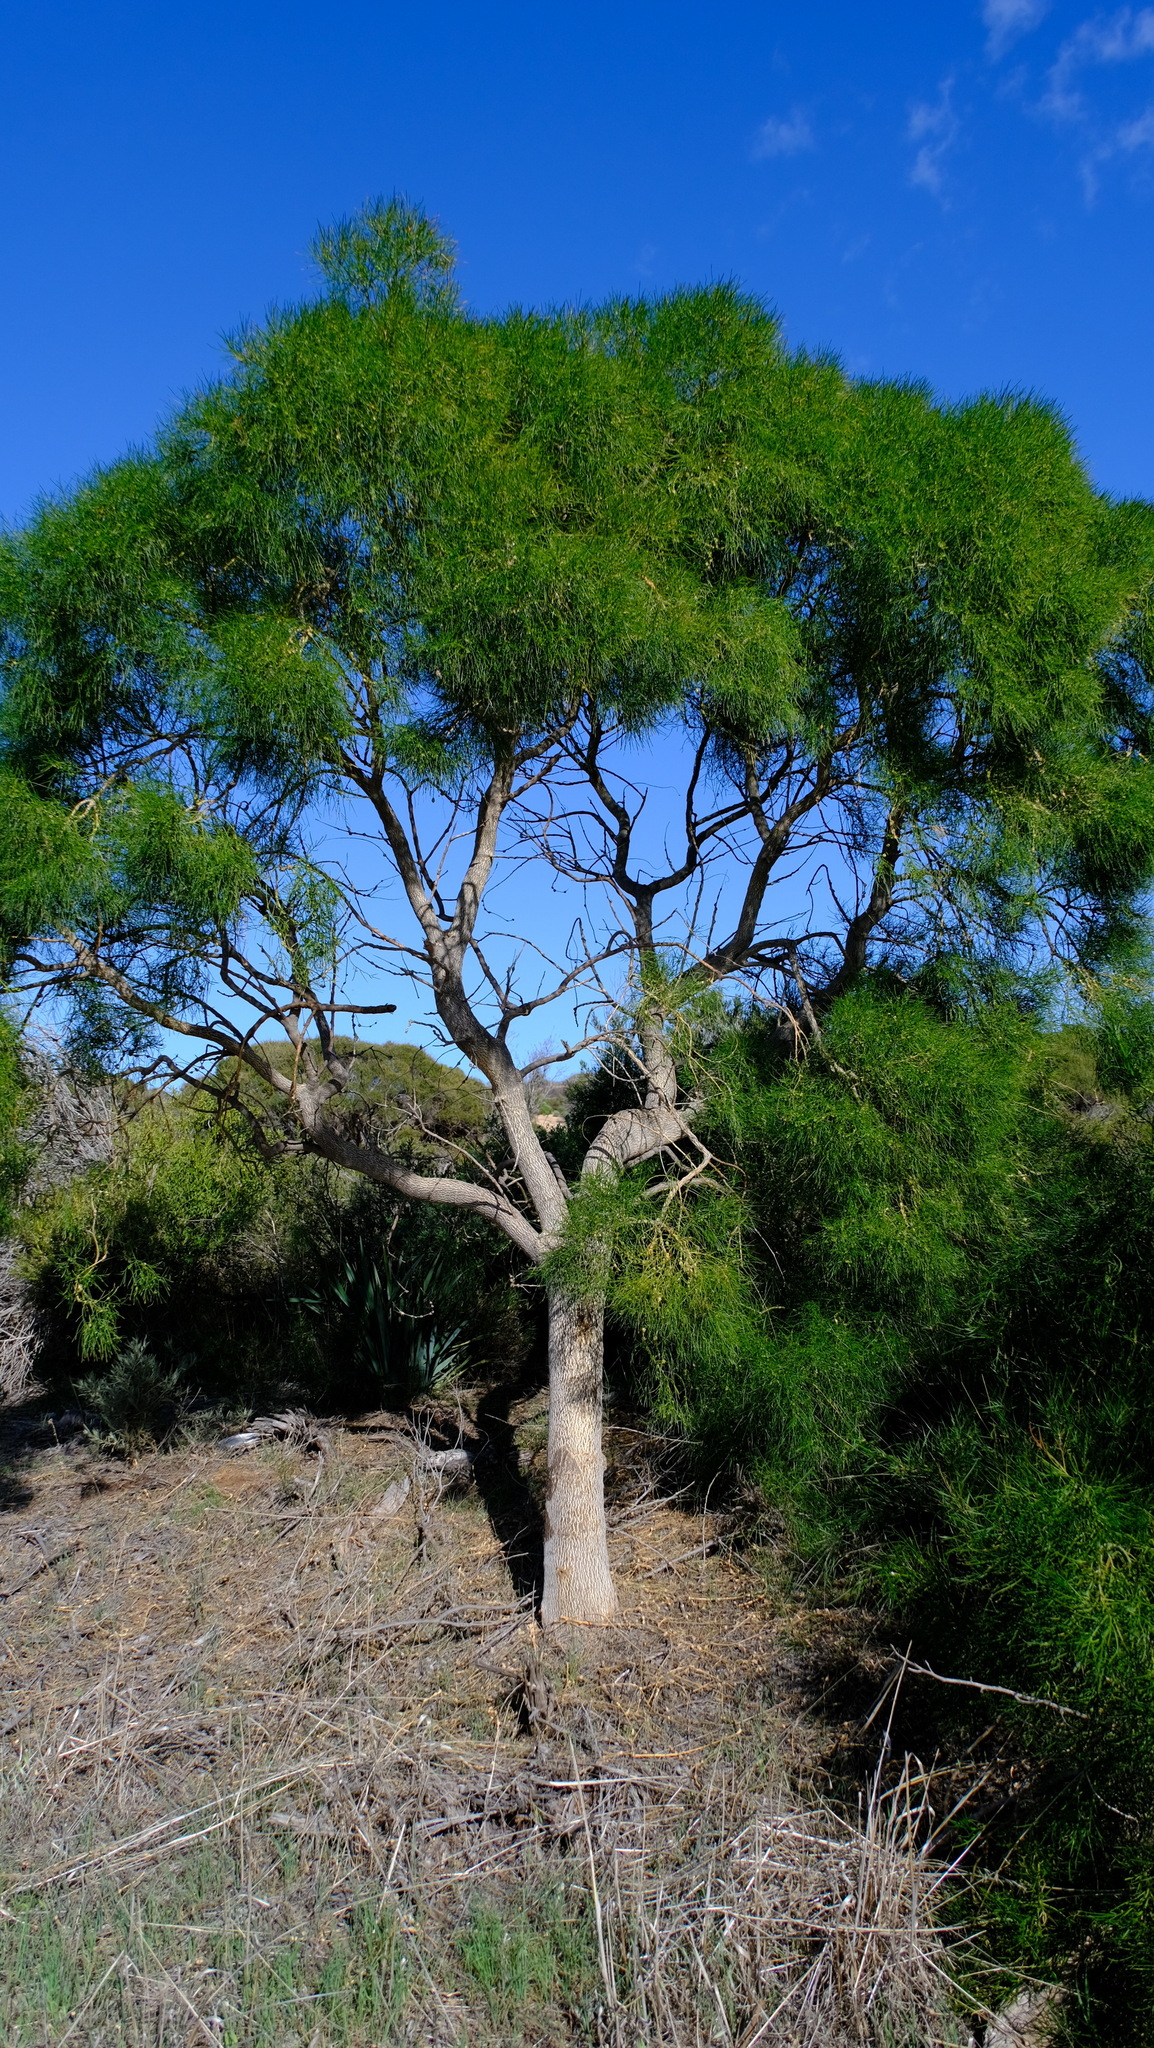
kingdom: Plantae
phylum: Tracheophyta
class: Magnoliopsida
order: Brassicales
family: Gyrostemonaceae
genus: Gyrostemon
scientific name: Gyrostemon ramulosus
